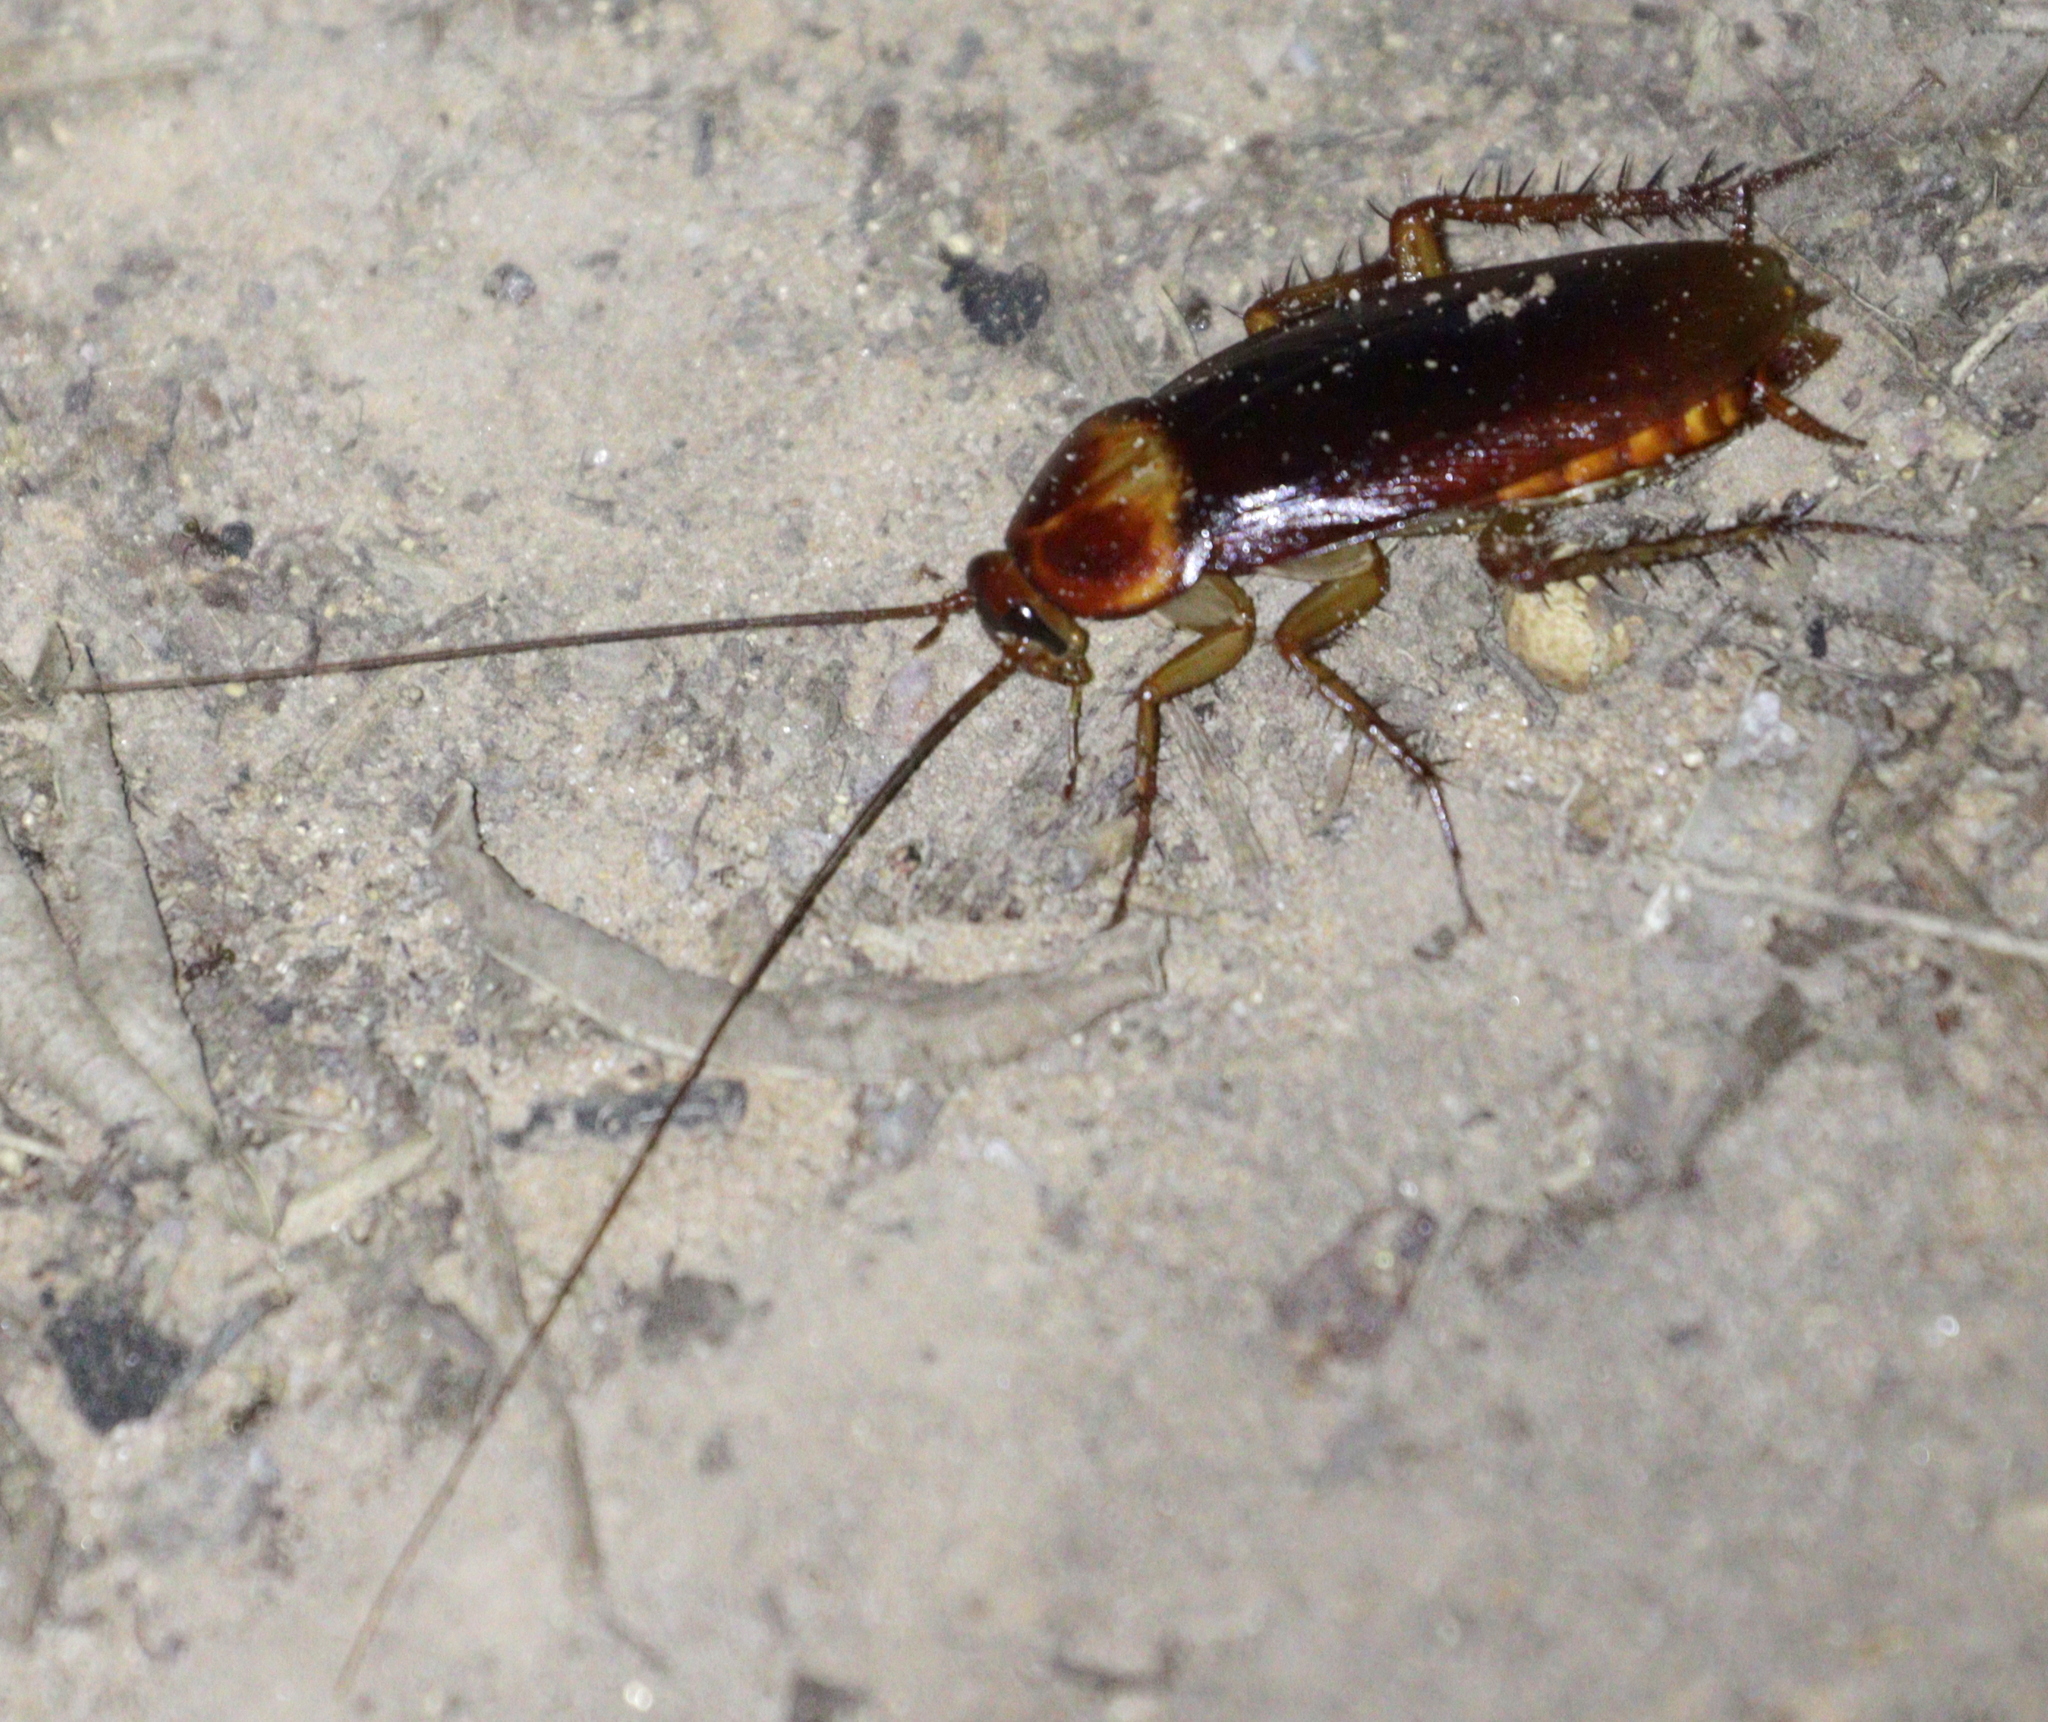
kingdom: Animalia
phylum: Arthropoda
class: Insecta
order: Blattodea
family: Blattidae
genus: Periplaneta
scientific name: Periplaneta americana
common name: American cockroach
